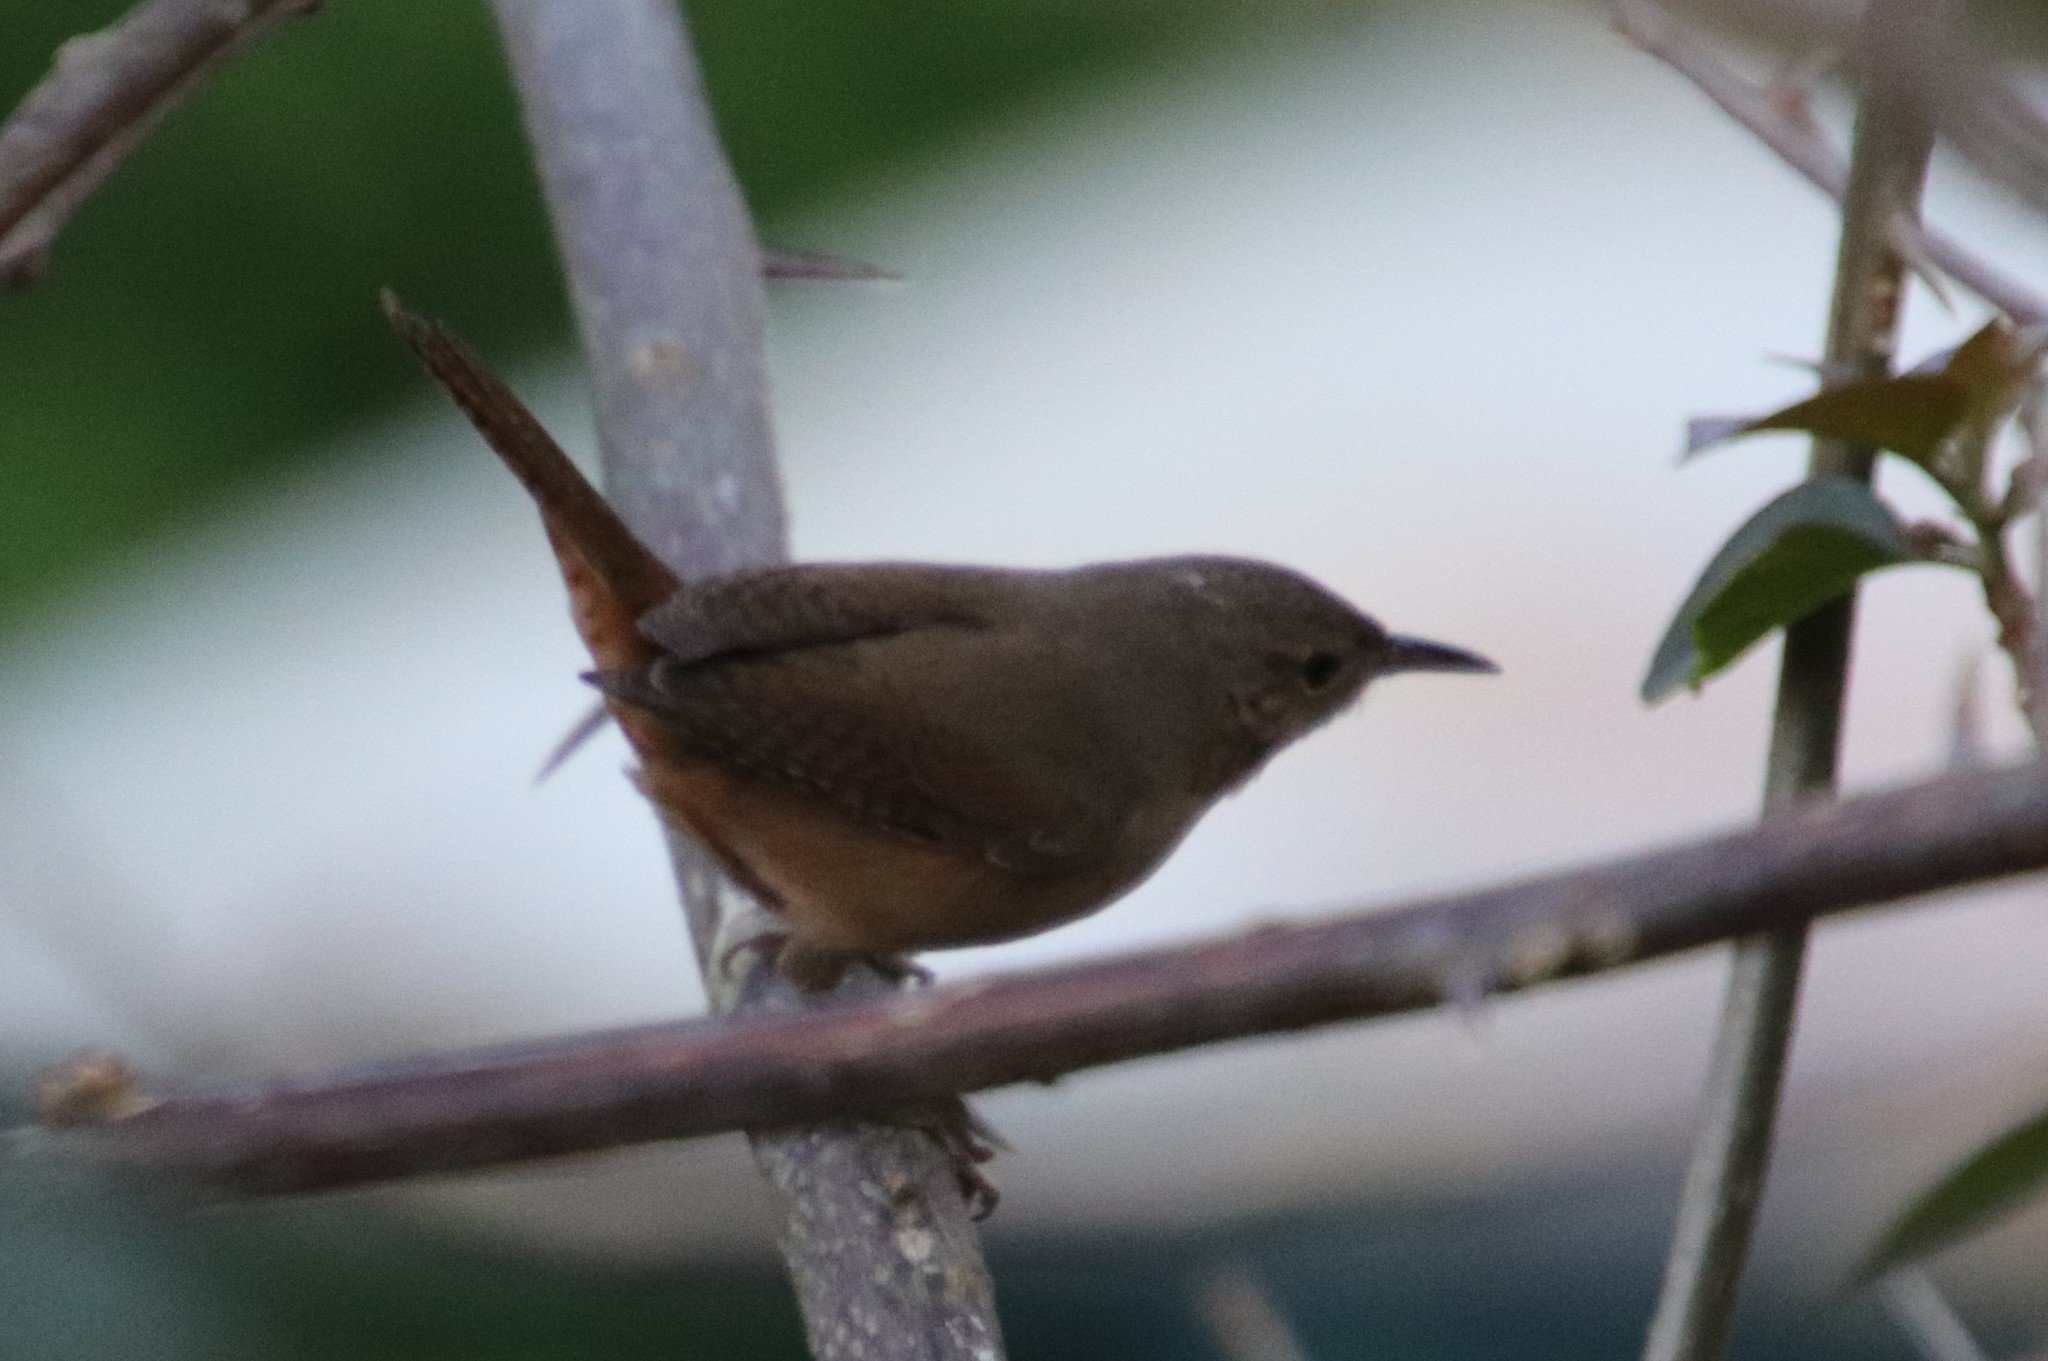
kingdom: Animalia
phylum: Chordata
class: Aves
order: Passeriformes
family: Troglodytidae
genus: Troglodytes
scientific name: Troglodytes aedon
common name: House wren
